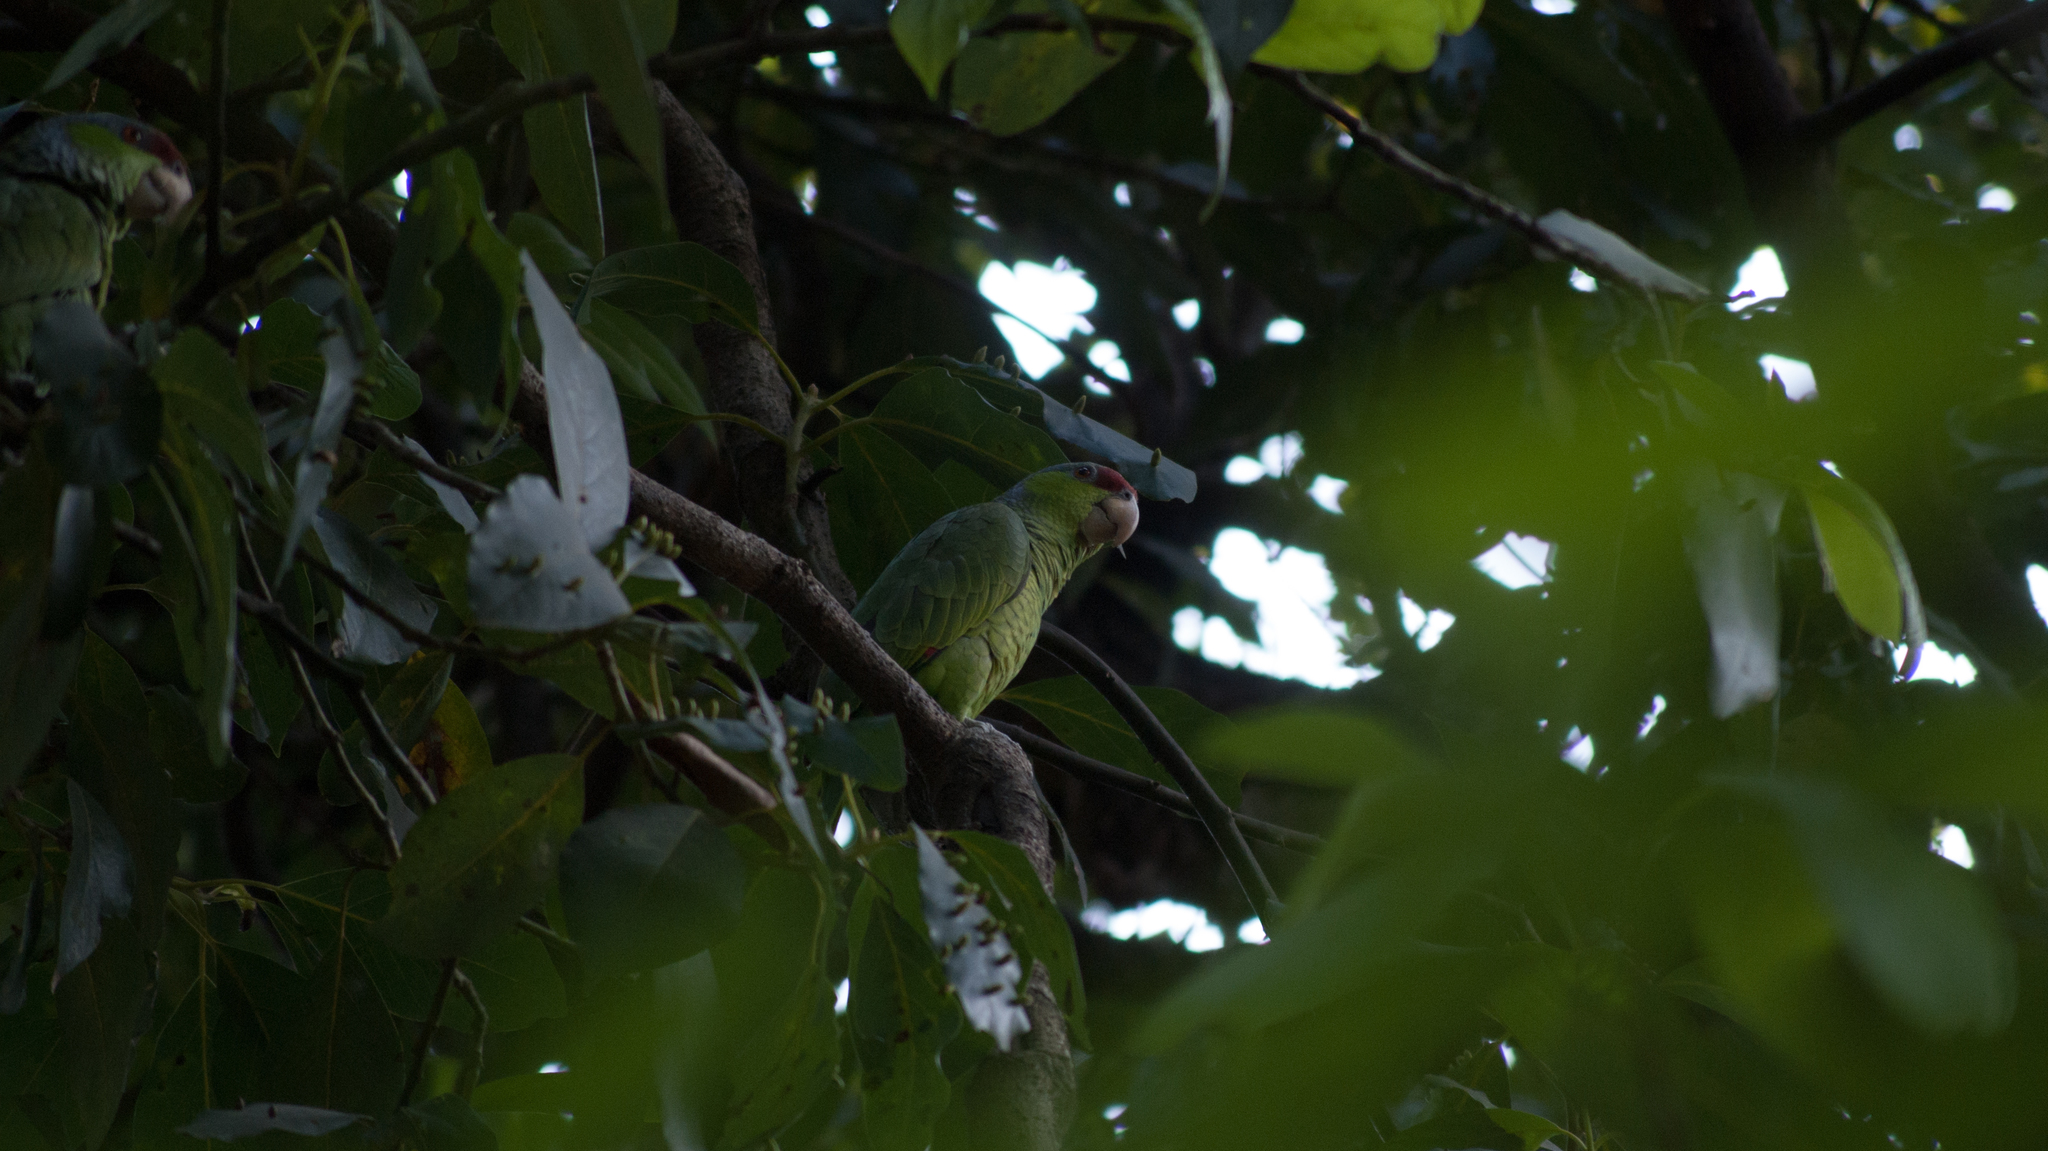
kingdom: Animalia
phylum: Chordata
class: Aves
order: Psittaciformes
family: Psittacidae
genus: Amazona
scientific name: Amazona finschi
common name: Lilac-crowned amazon
